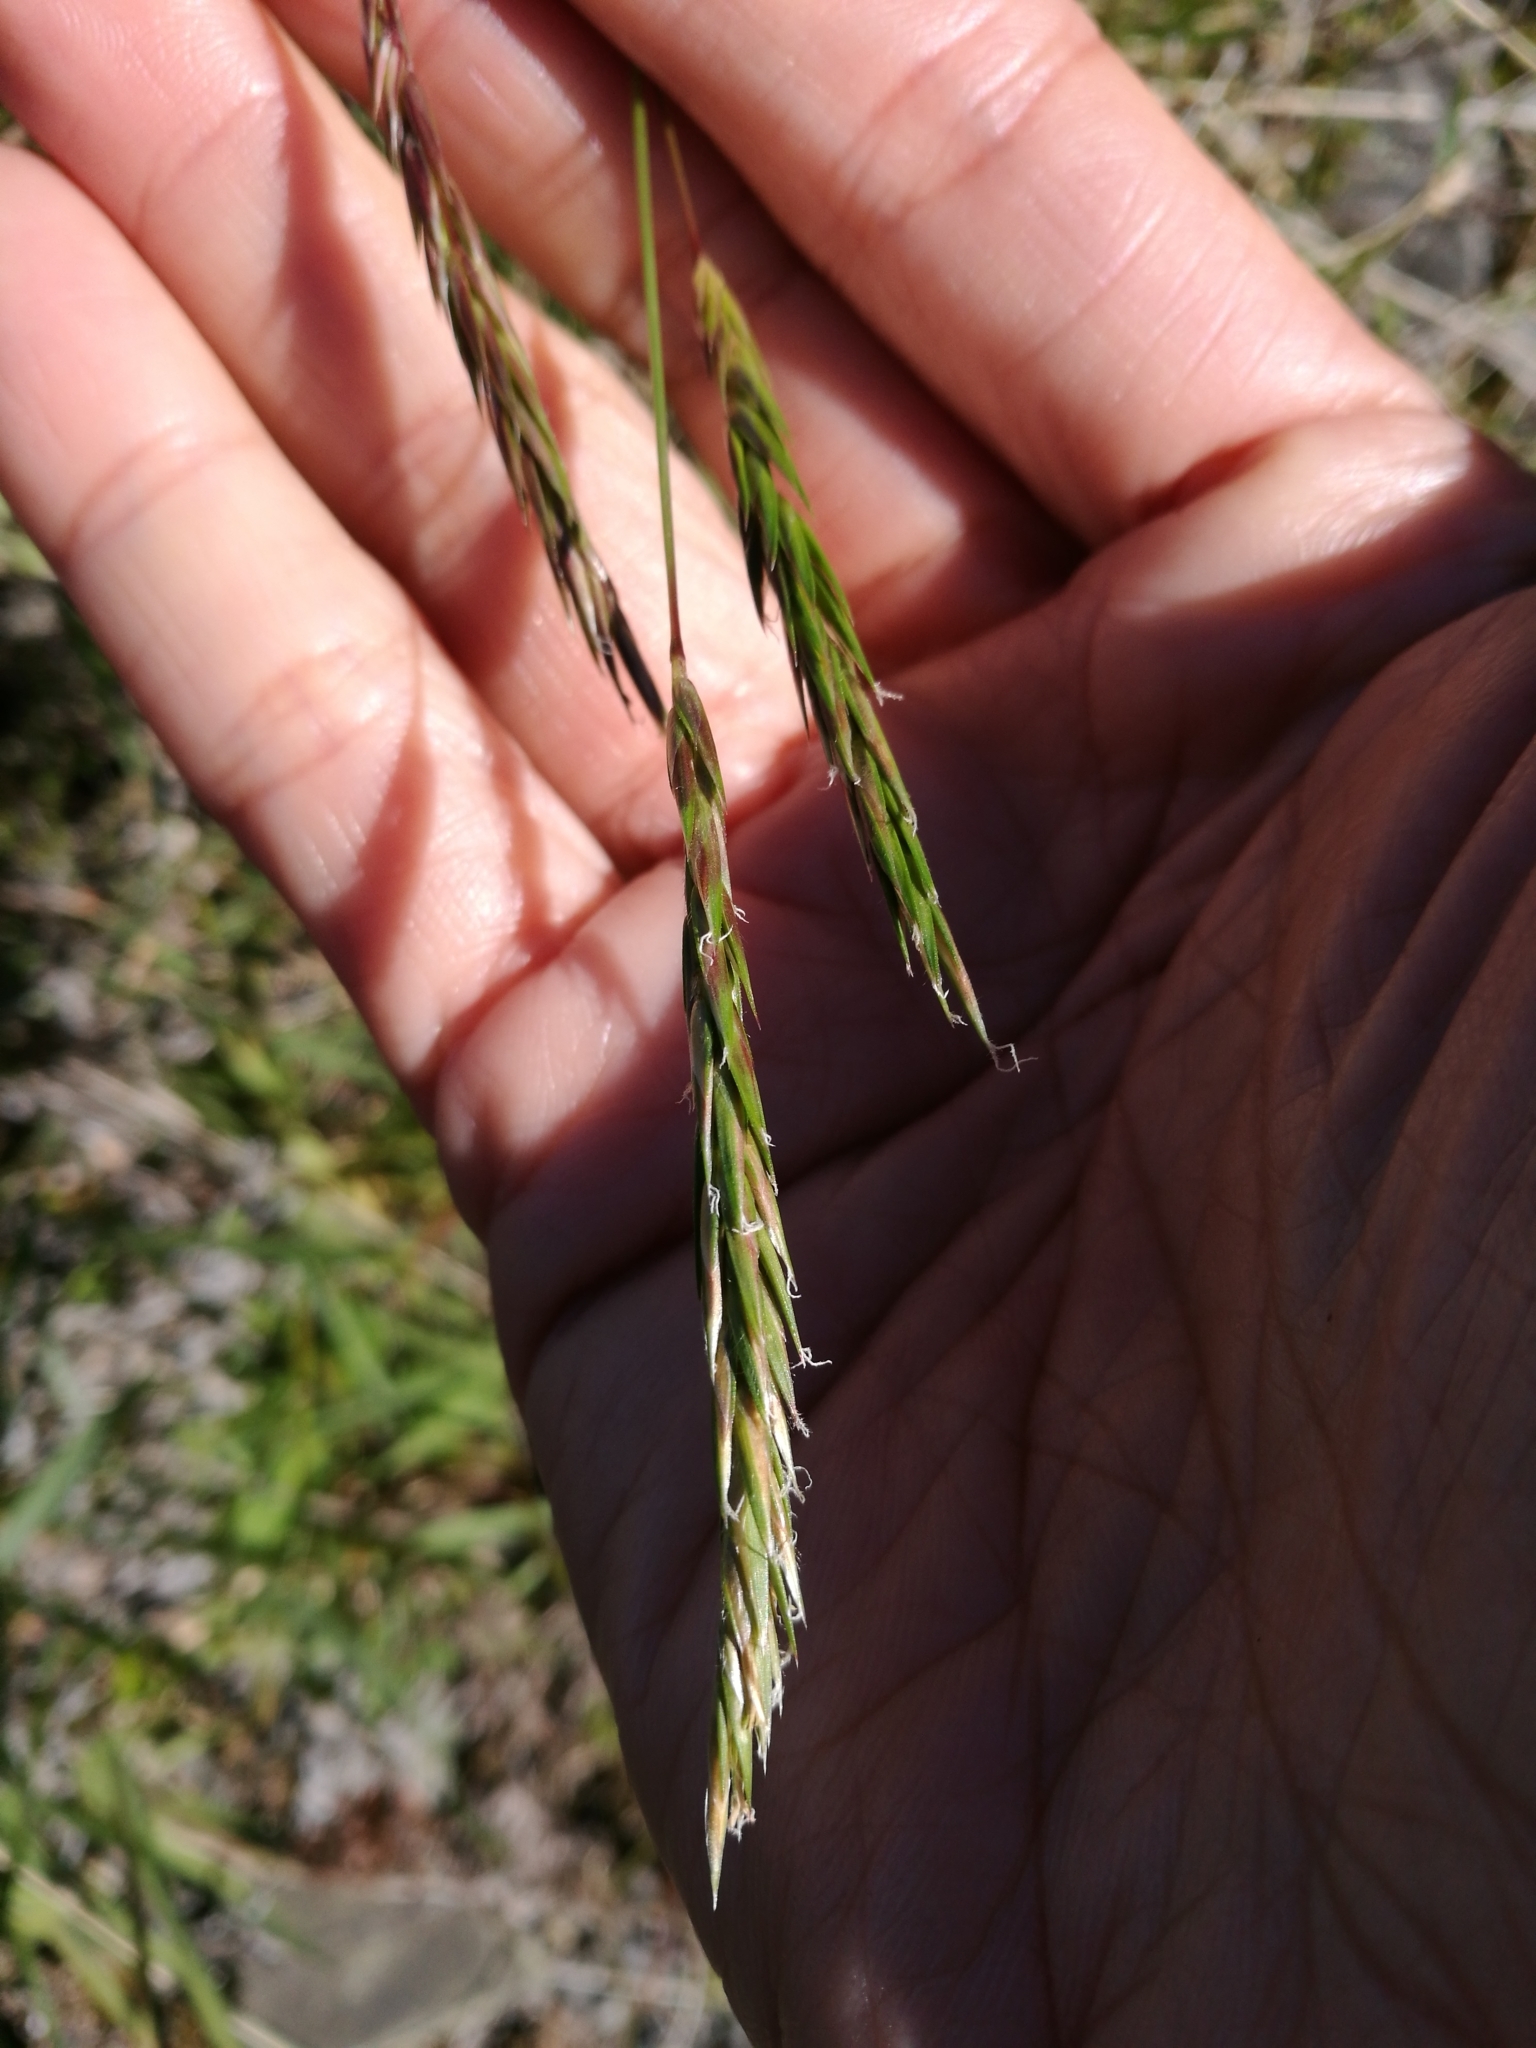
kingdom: Plantae
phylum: Tracheophyta
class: Liliopsida
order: Poales
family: Poaceae
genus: Anthoxanthum
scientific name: Anthoxanthum odoratum
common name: Sweet vernalgrass
